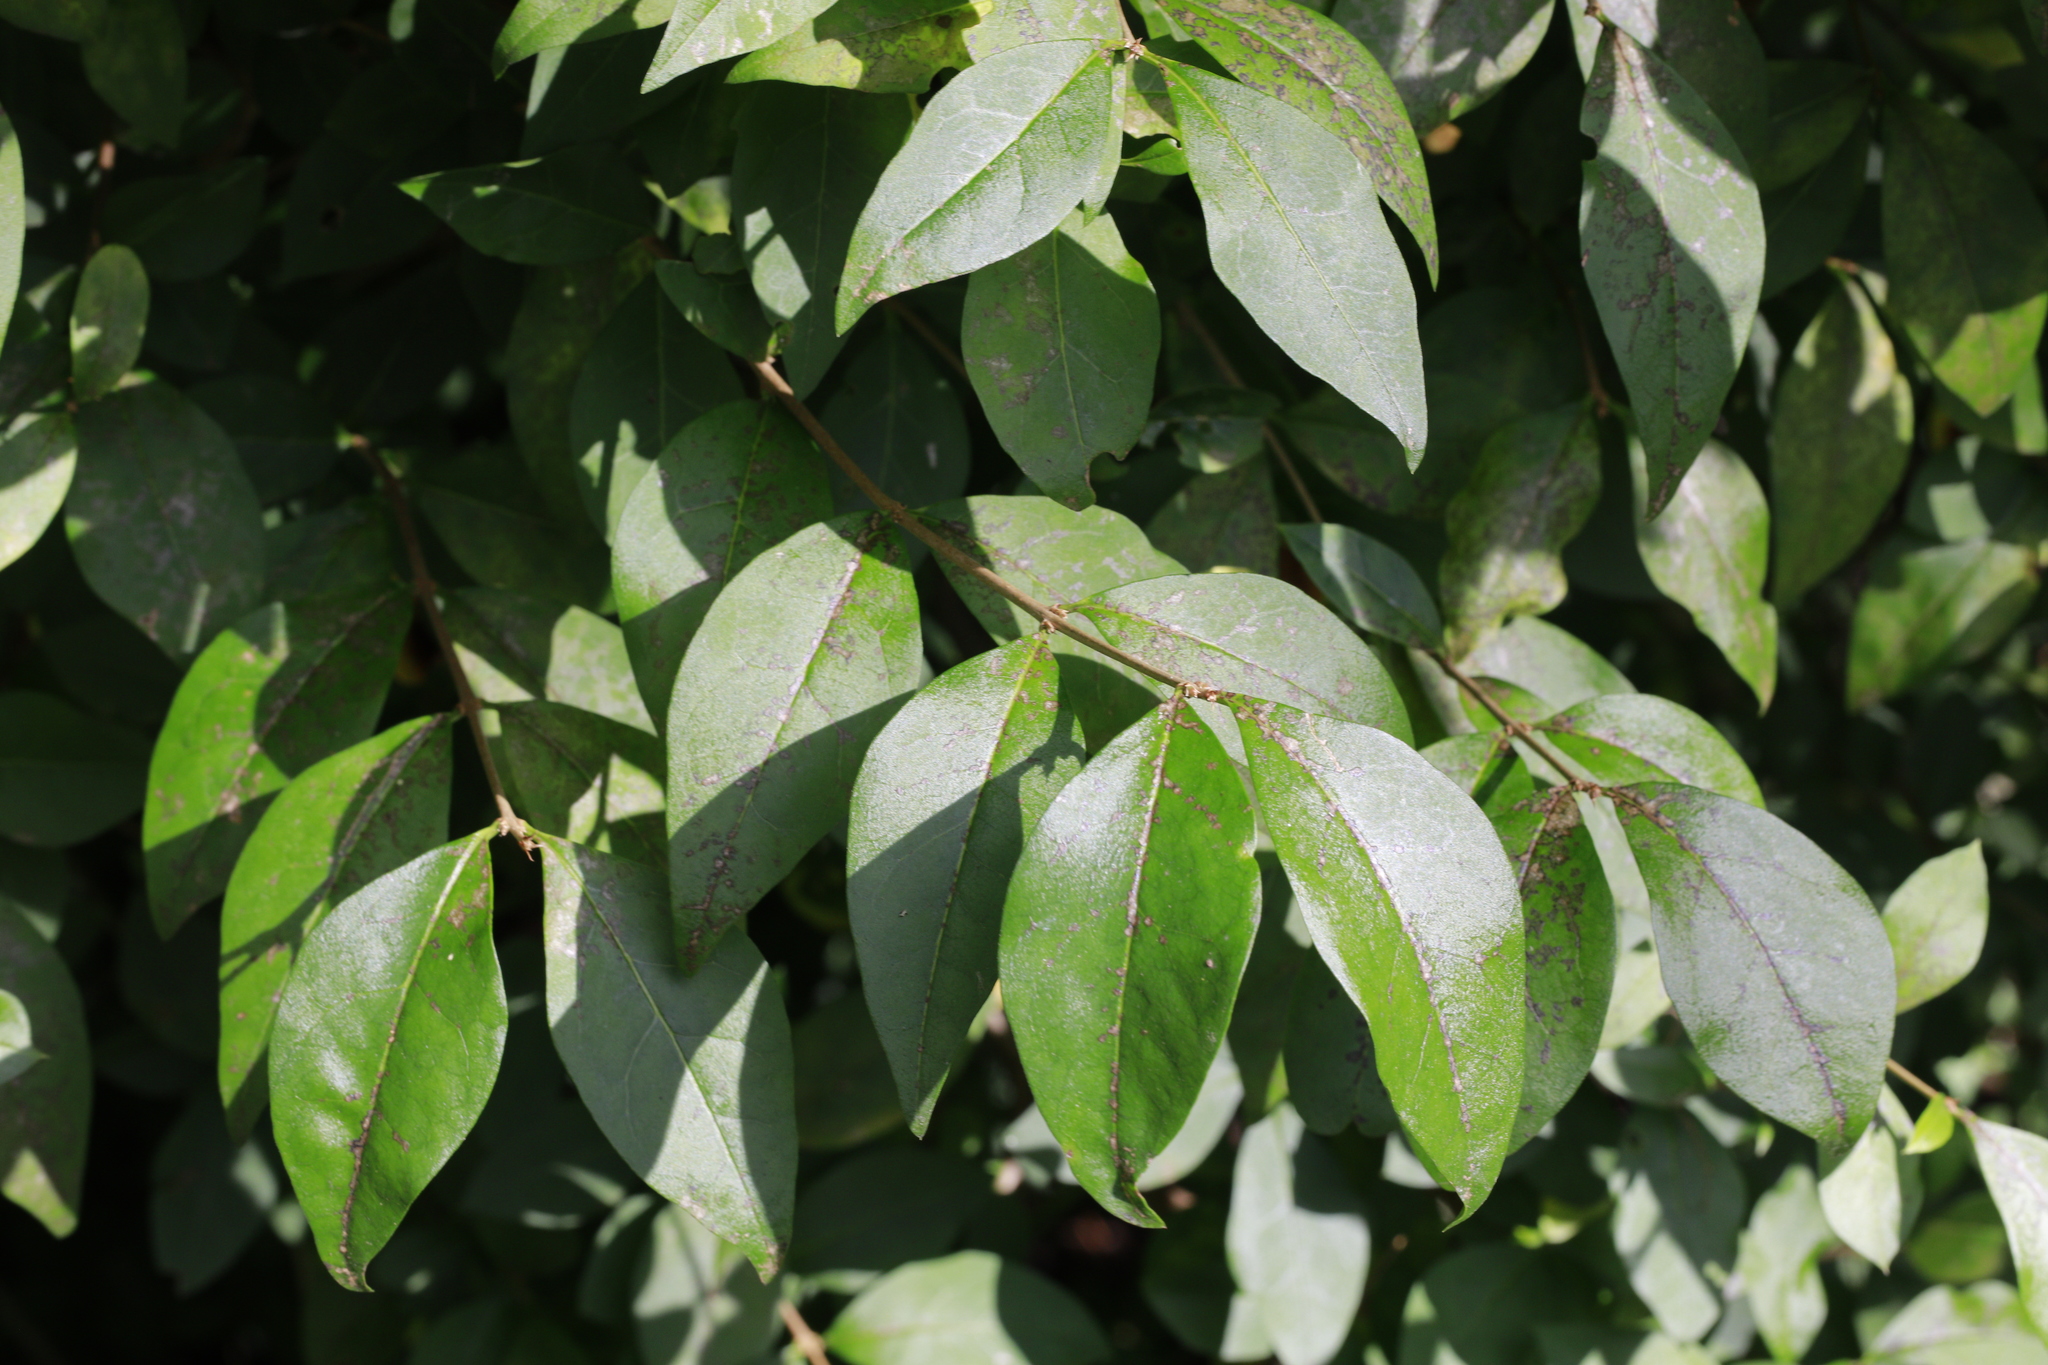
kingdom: Plantae
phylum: Tracheophyta
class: Magnoliopsida
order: Lamiales
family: Oleaceae
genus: Ligustrum
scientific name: Ligustrum ovalifolium
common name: California privet
